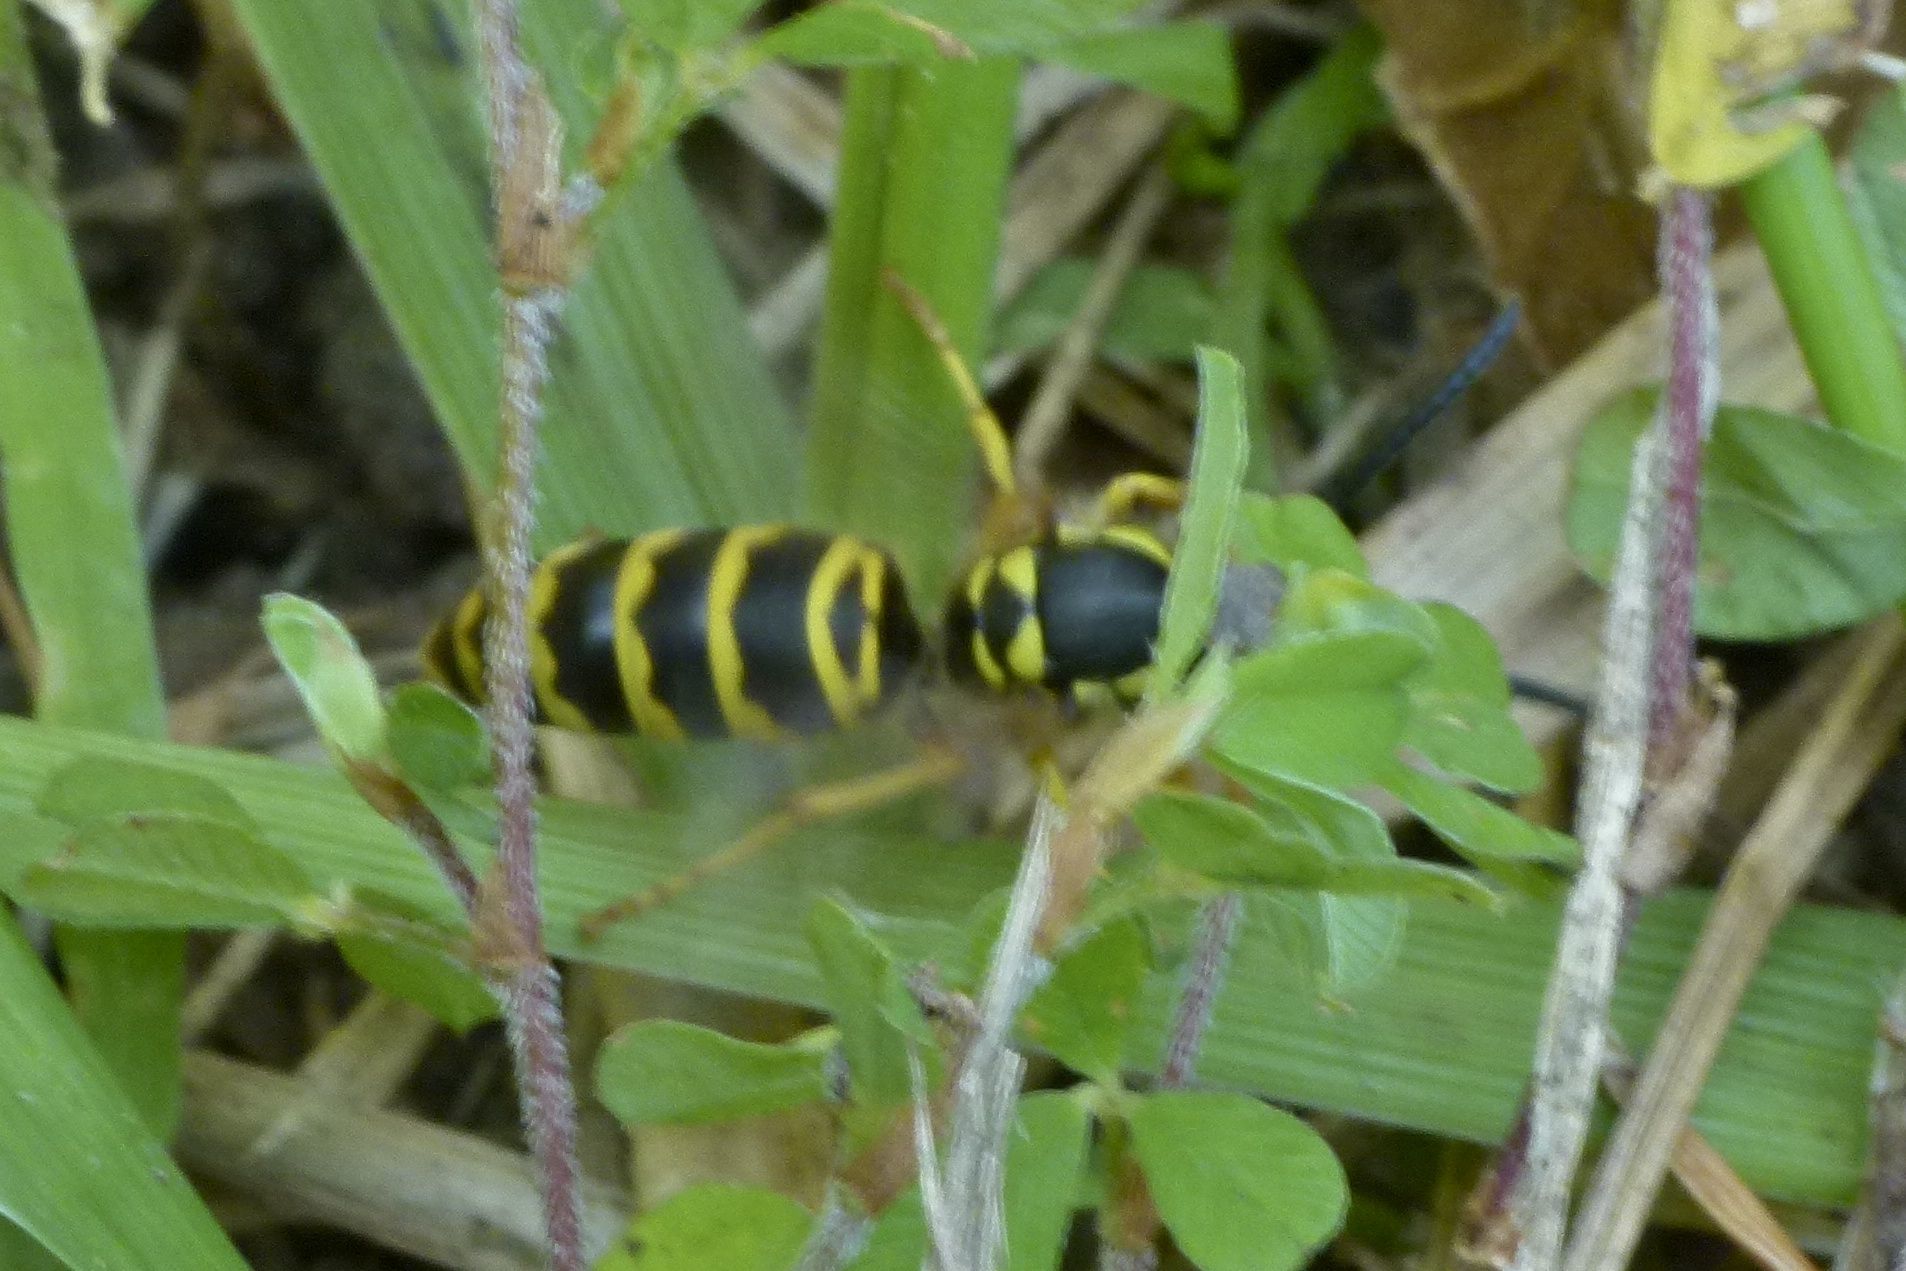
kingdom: Animalia
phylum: Arthropoda
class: Insecta
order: Hymenoptera
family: Vespidae
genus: Vespula
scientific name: Vespula maculifrons
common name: Eastern yellowjacket
